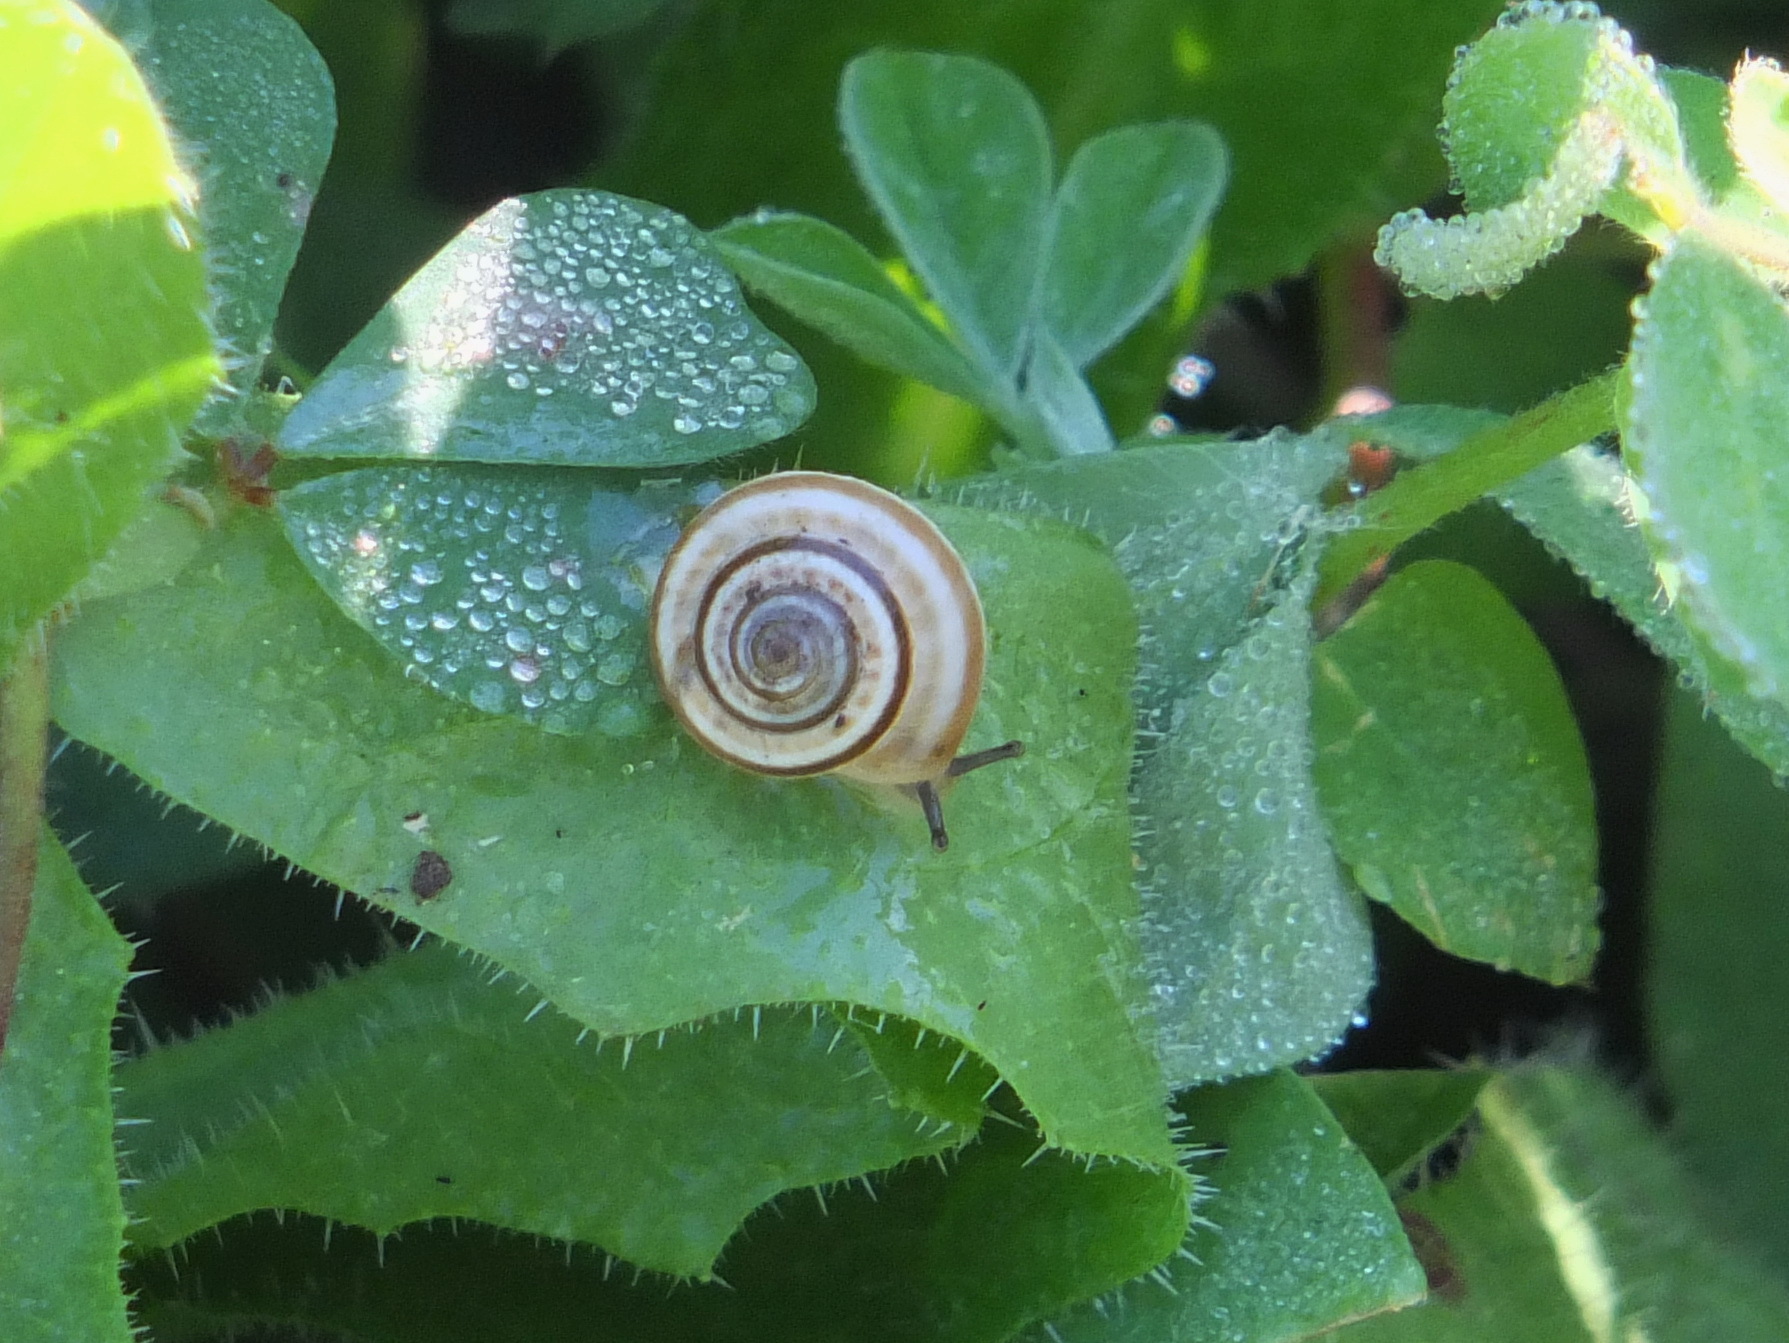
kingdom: Animalia
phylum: Mollusca
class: Gastropoda
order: Stylommatophora
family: Geomitridae
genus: Helicella
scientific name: Helicella itala
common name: Heath snail
